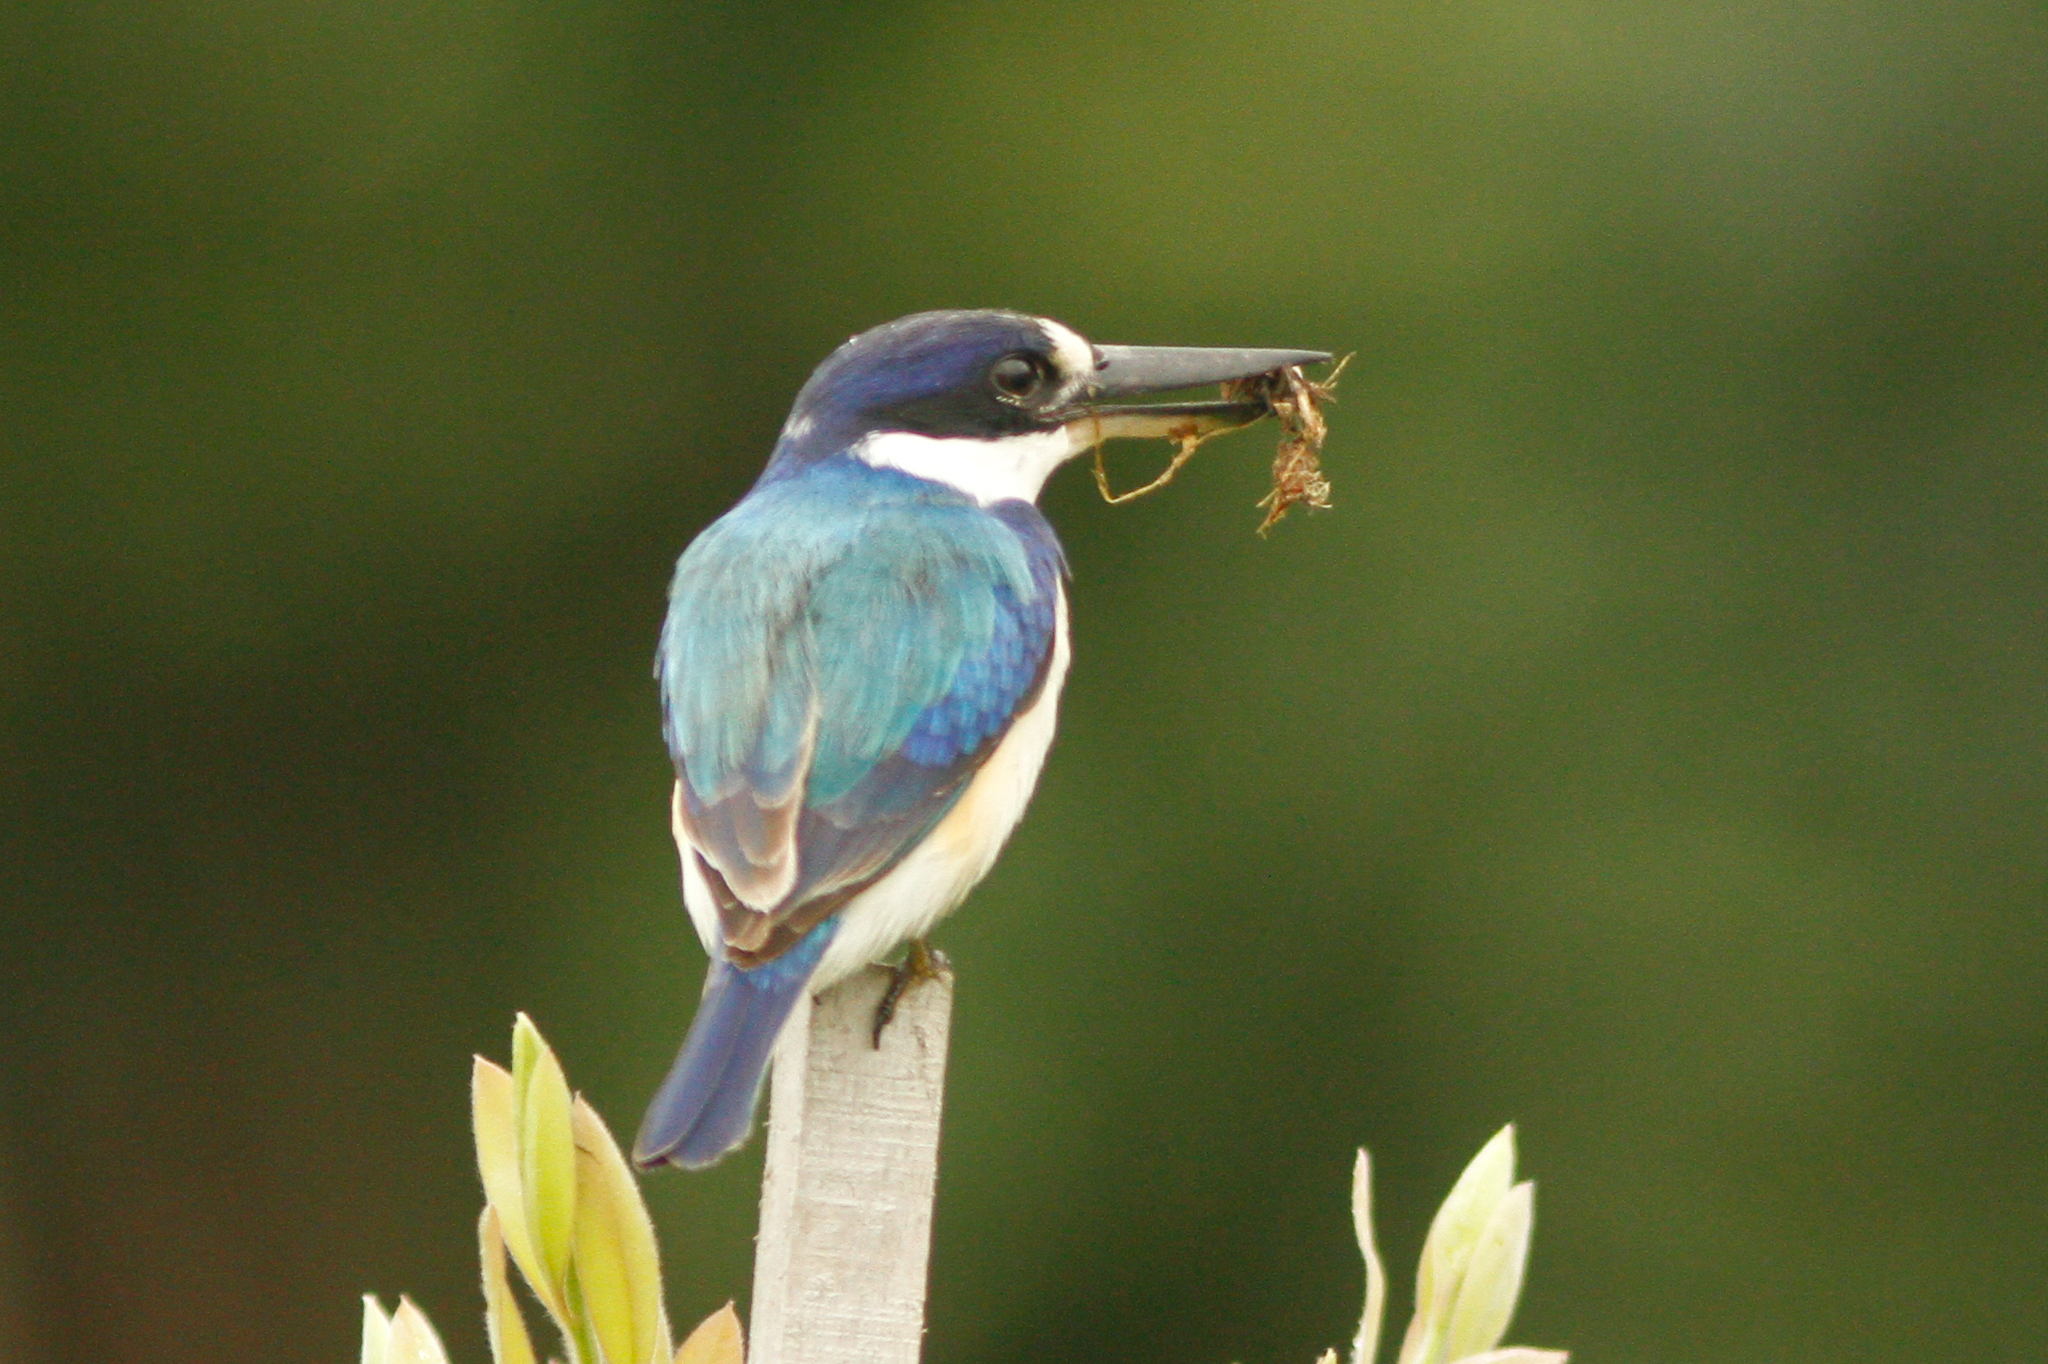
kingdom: Animalia
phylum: Chordata
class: Aves
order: Coraciiformes
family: Alcedinidae
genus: Todiramphus
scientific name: Todiramphus macleayii
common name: Forest kingfisher
